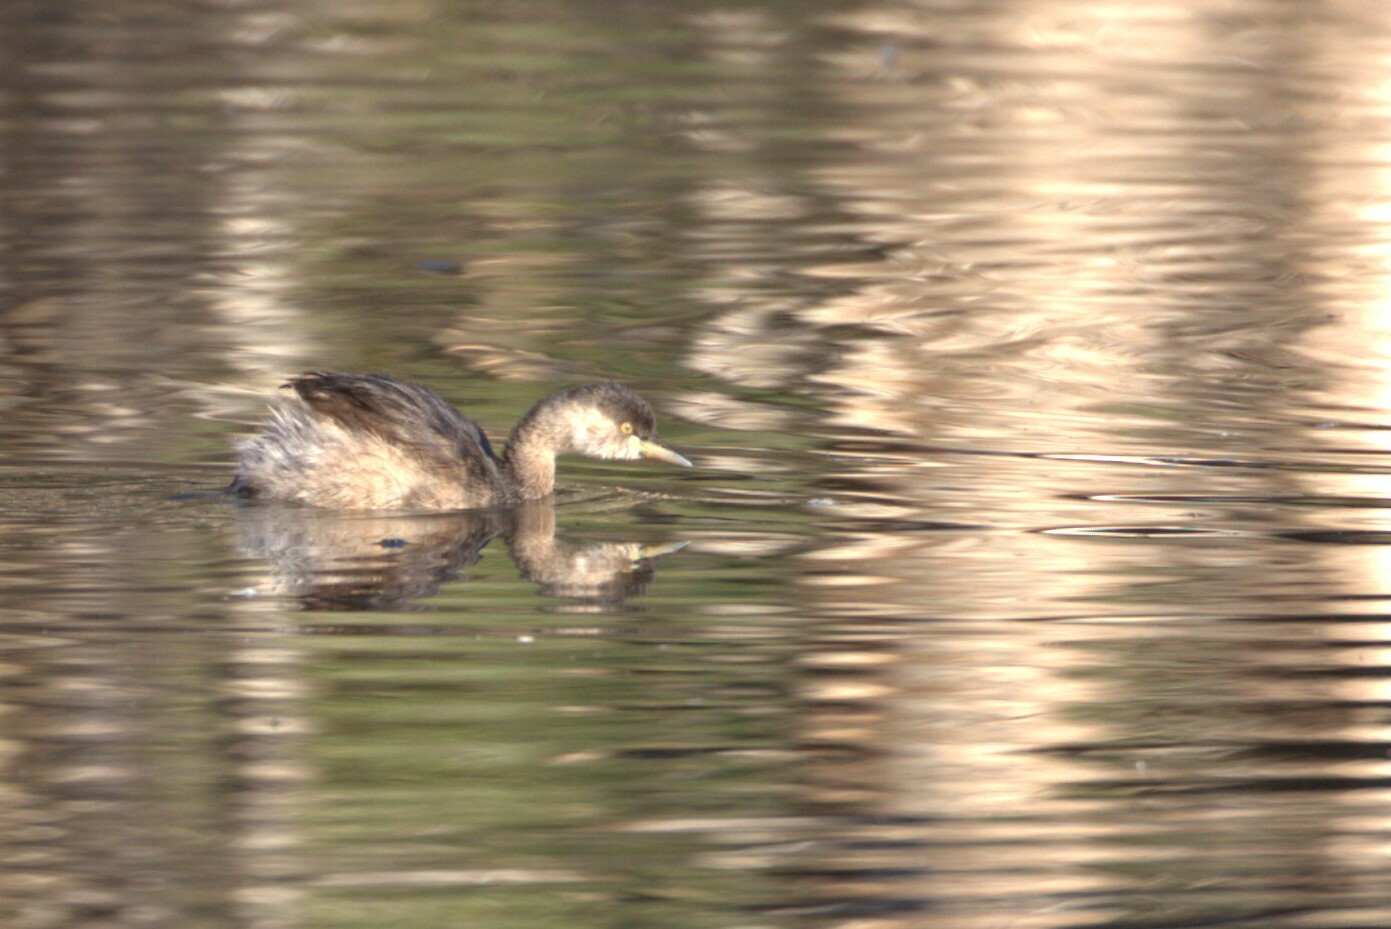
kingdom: Animalia
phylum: Chordata
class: Aves
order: Podicipediformes
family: Podicipedidae
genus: Tachybaptus
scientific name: Tachybaptus novaehollandiae
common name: Australasian grebe
